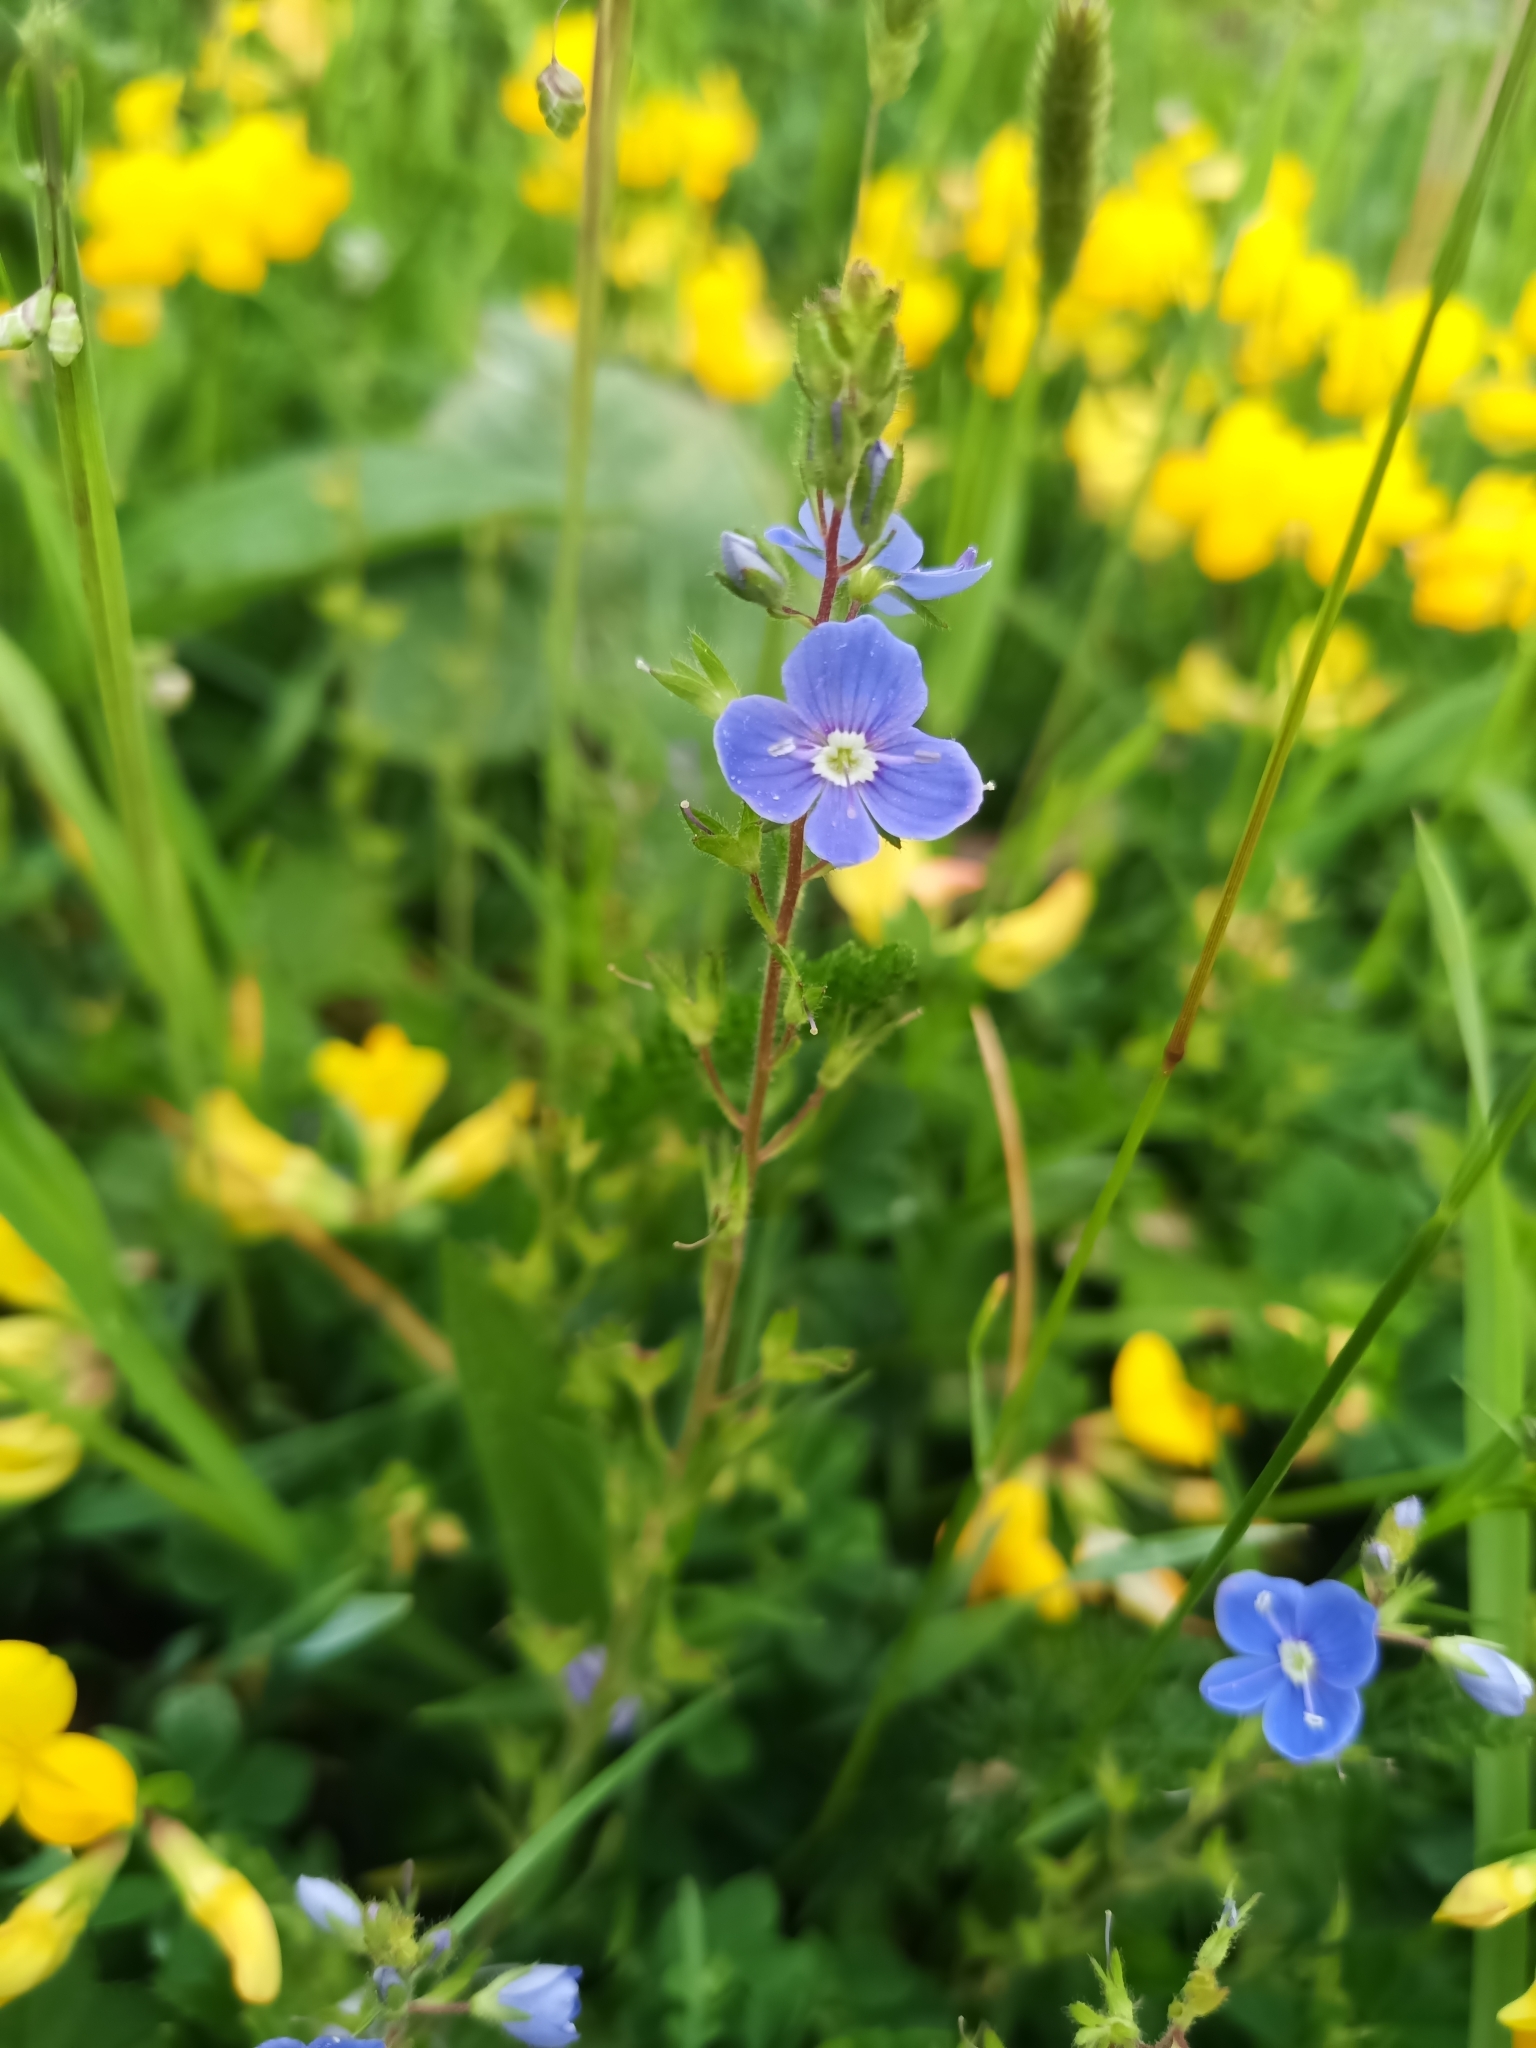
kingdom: Plantae
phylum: Tracheophyta
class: Magnoliopsida
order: Lamiales
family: Plantaginaceae
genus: Veronica
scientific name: Veronica chamaedrys
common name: Germander speedwell
